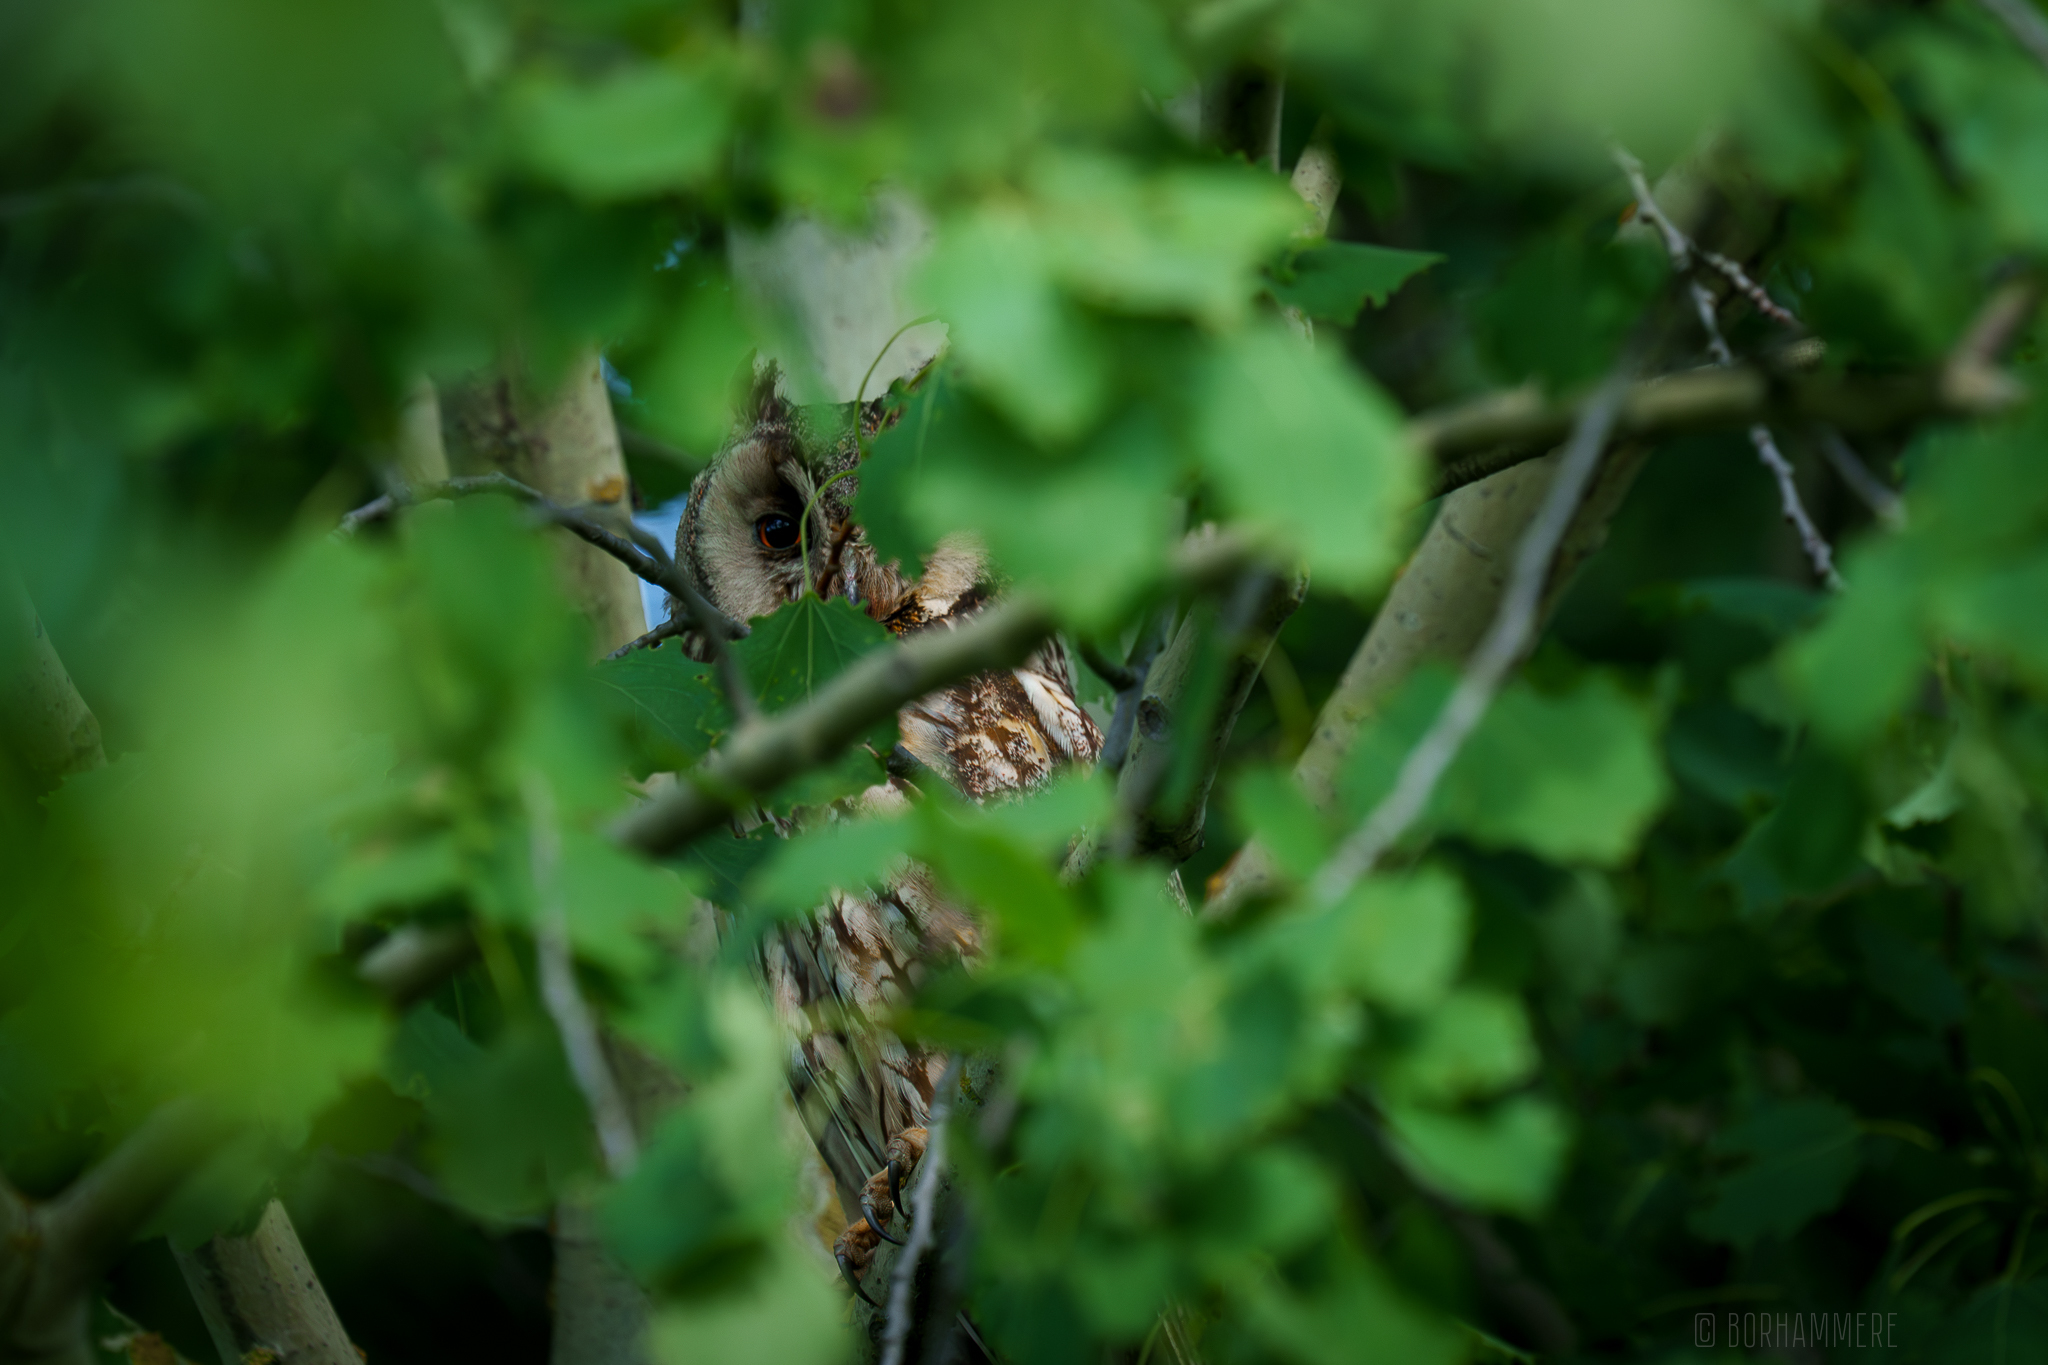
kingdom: Animalia
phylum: Chordata
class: Aves
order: Strigiformes
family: Strigidae
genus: Asio
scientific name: Asio otus
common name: Long-eared owl
